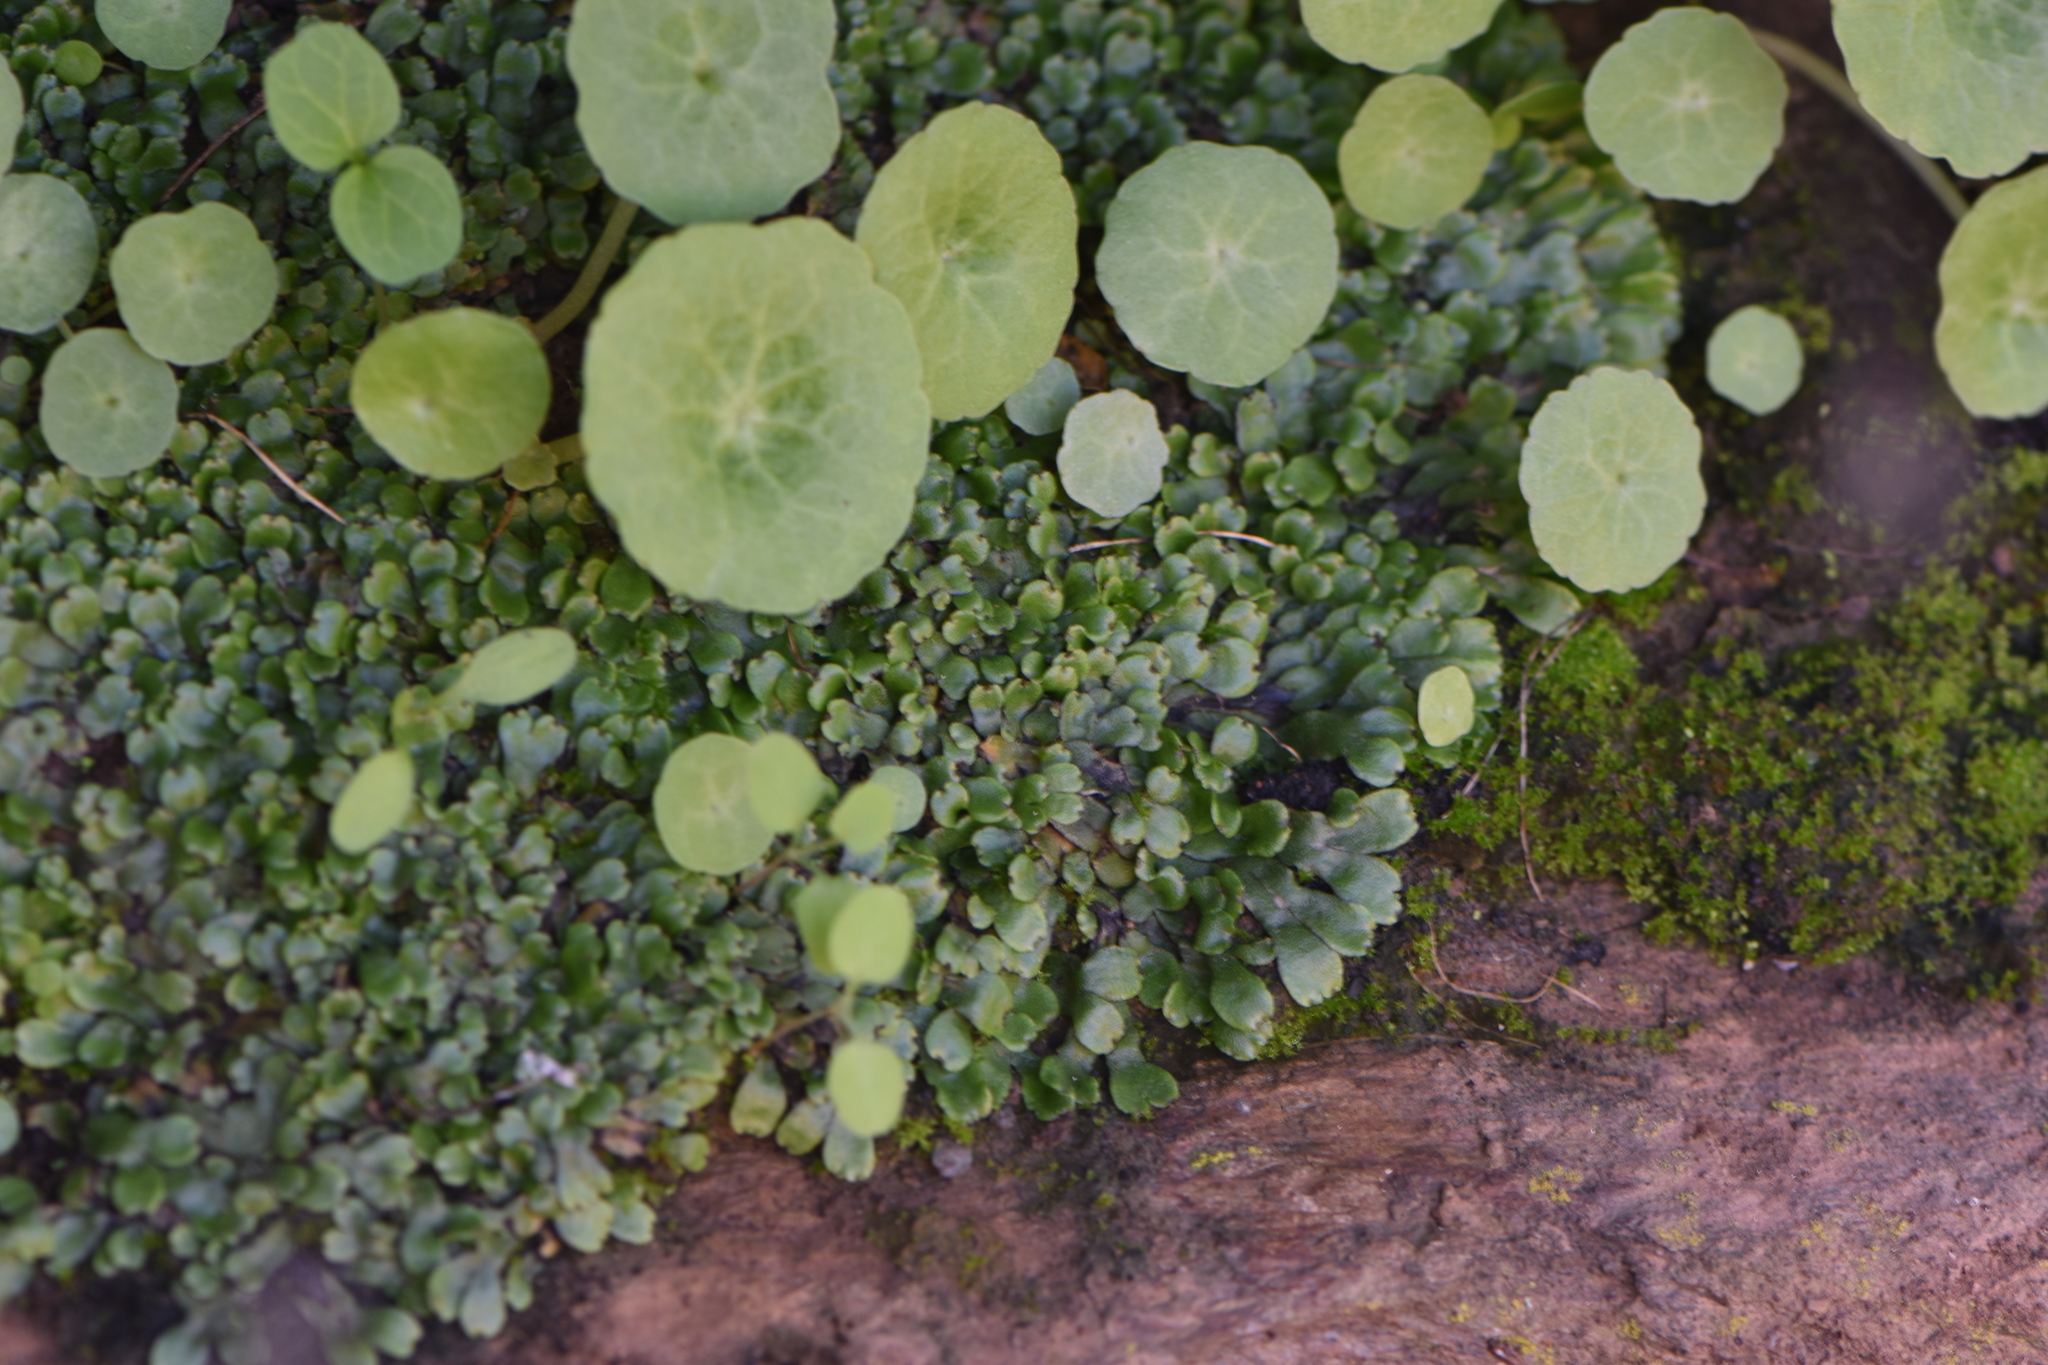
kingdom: Plantae
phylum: Marchantiophyta
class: Marchantiopsida
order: Marchantiales
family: Aytoniaceae
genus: Plagiochasma
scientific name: Plagiochasma rupestre
